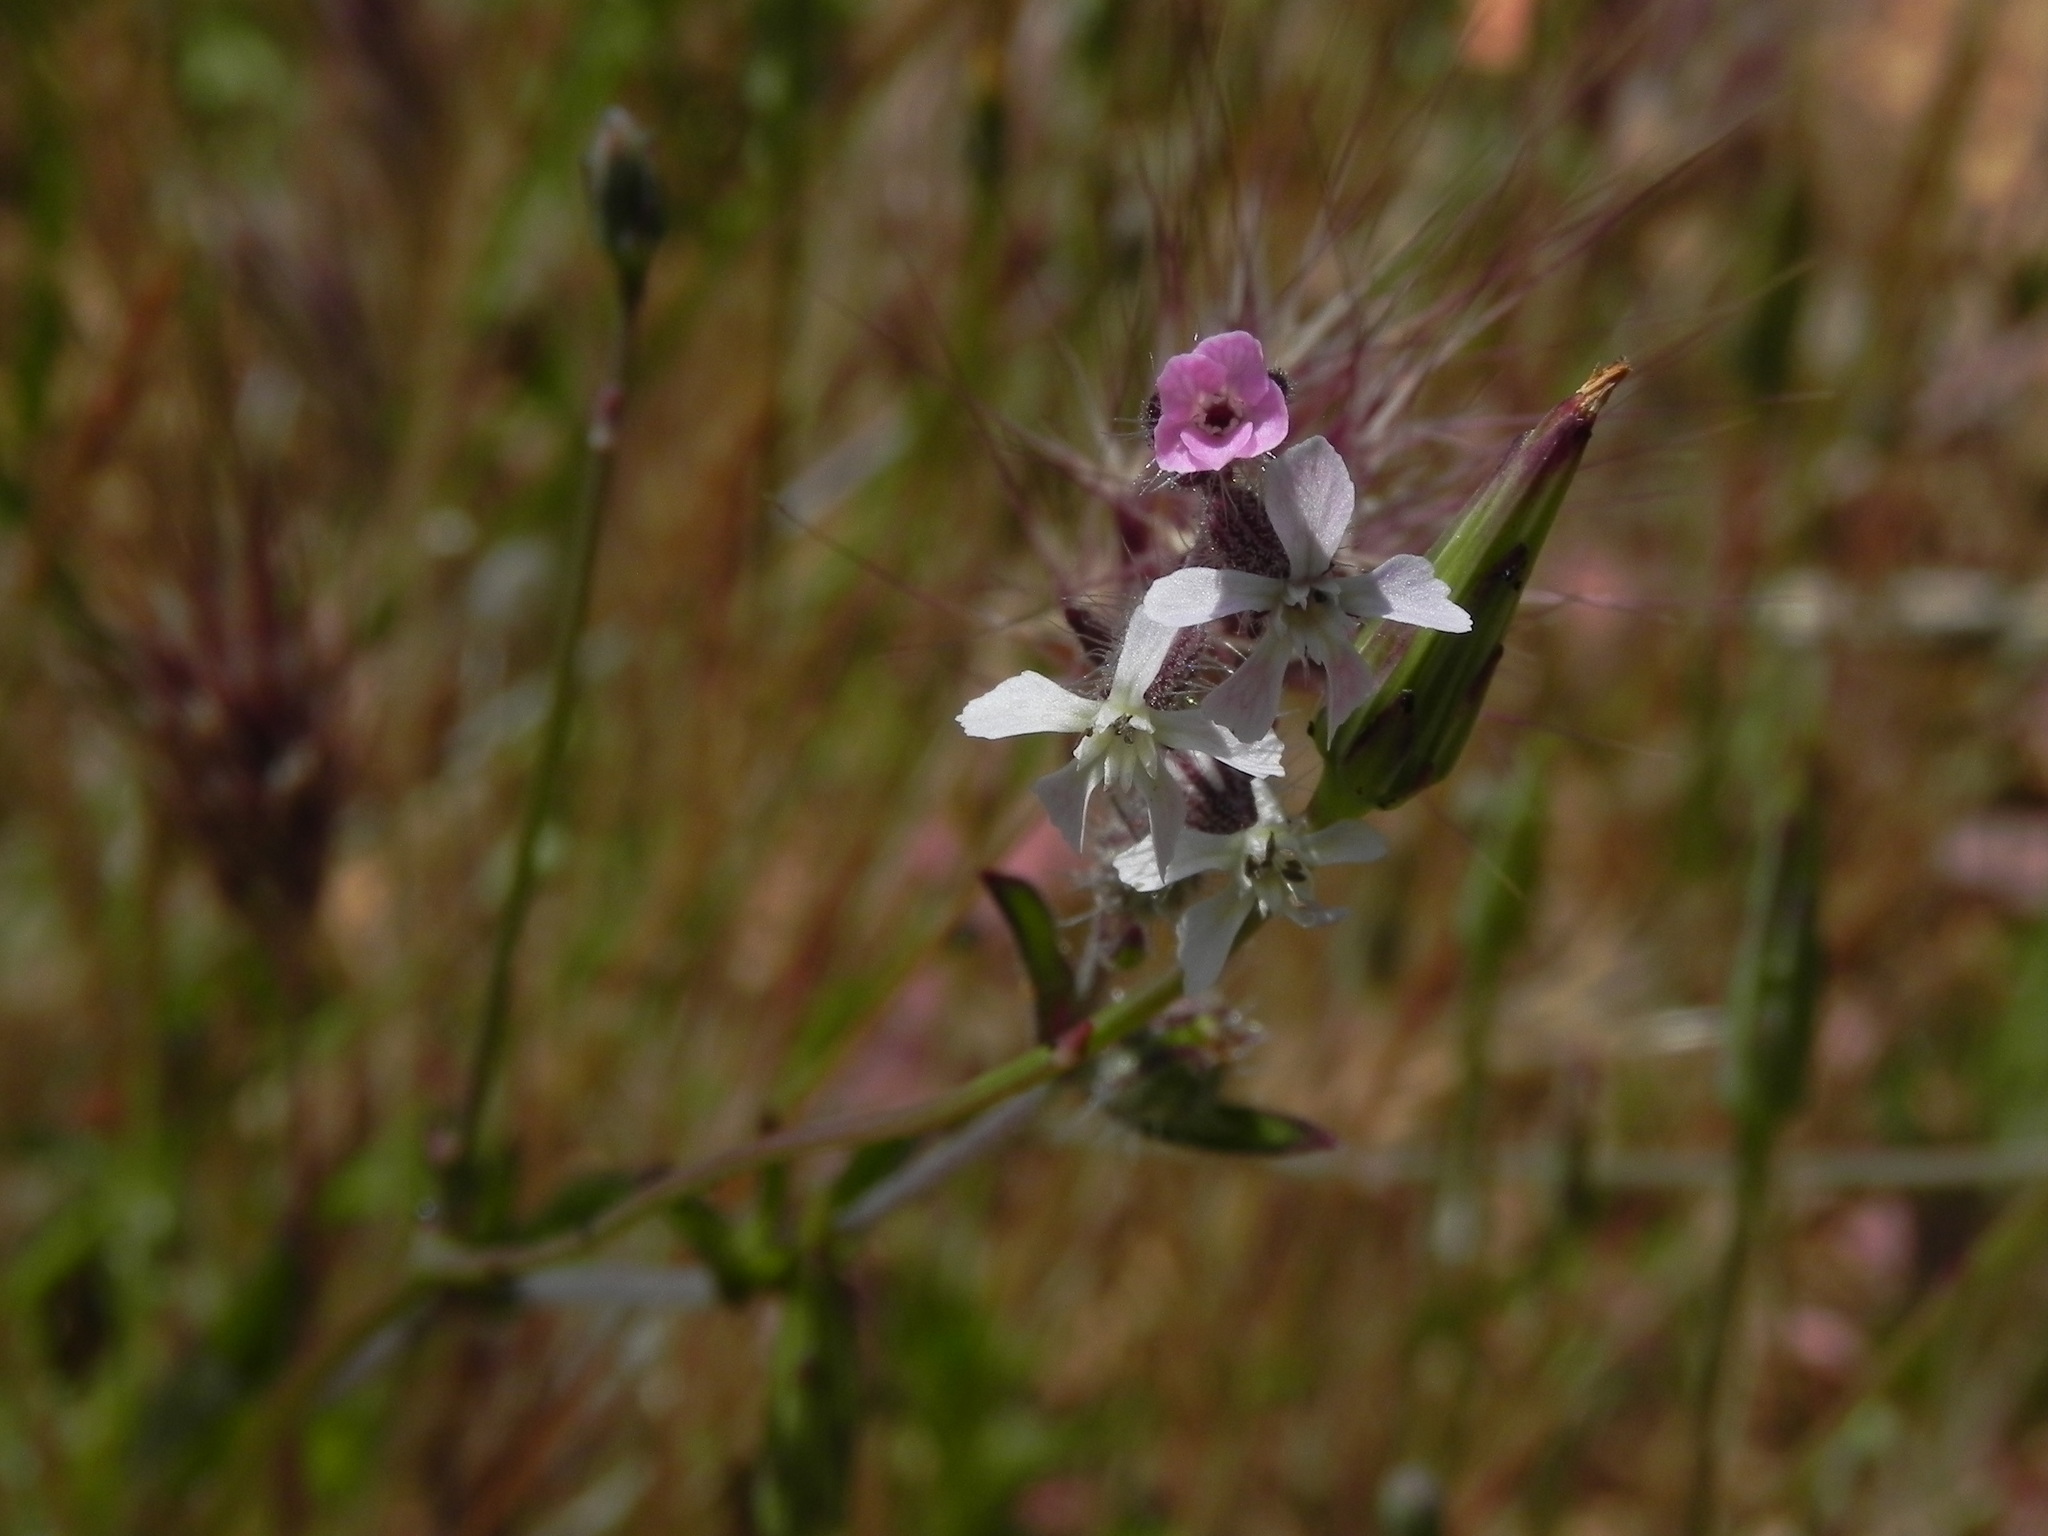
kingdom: Plantae
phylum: Tracheophyta
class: Magnoliopsida
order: Caryophyllales
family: Caryophyllaceae
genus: Silene
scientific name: Silene gallica
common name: Small-flowered catchfly
